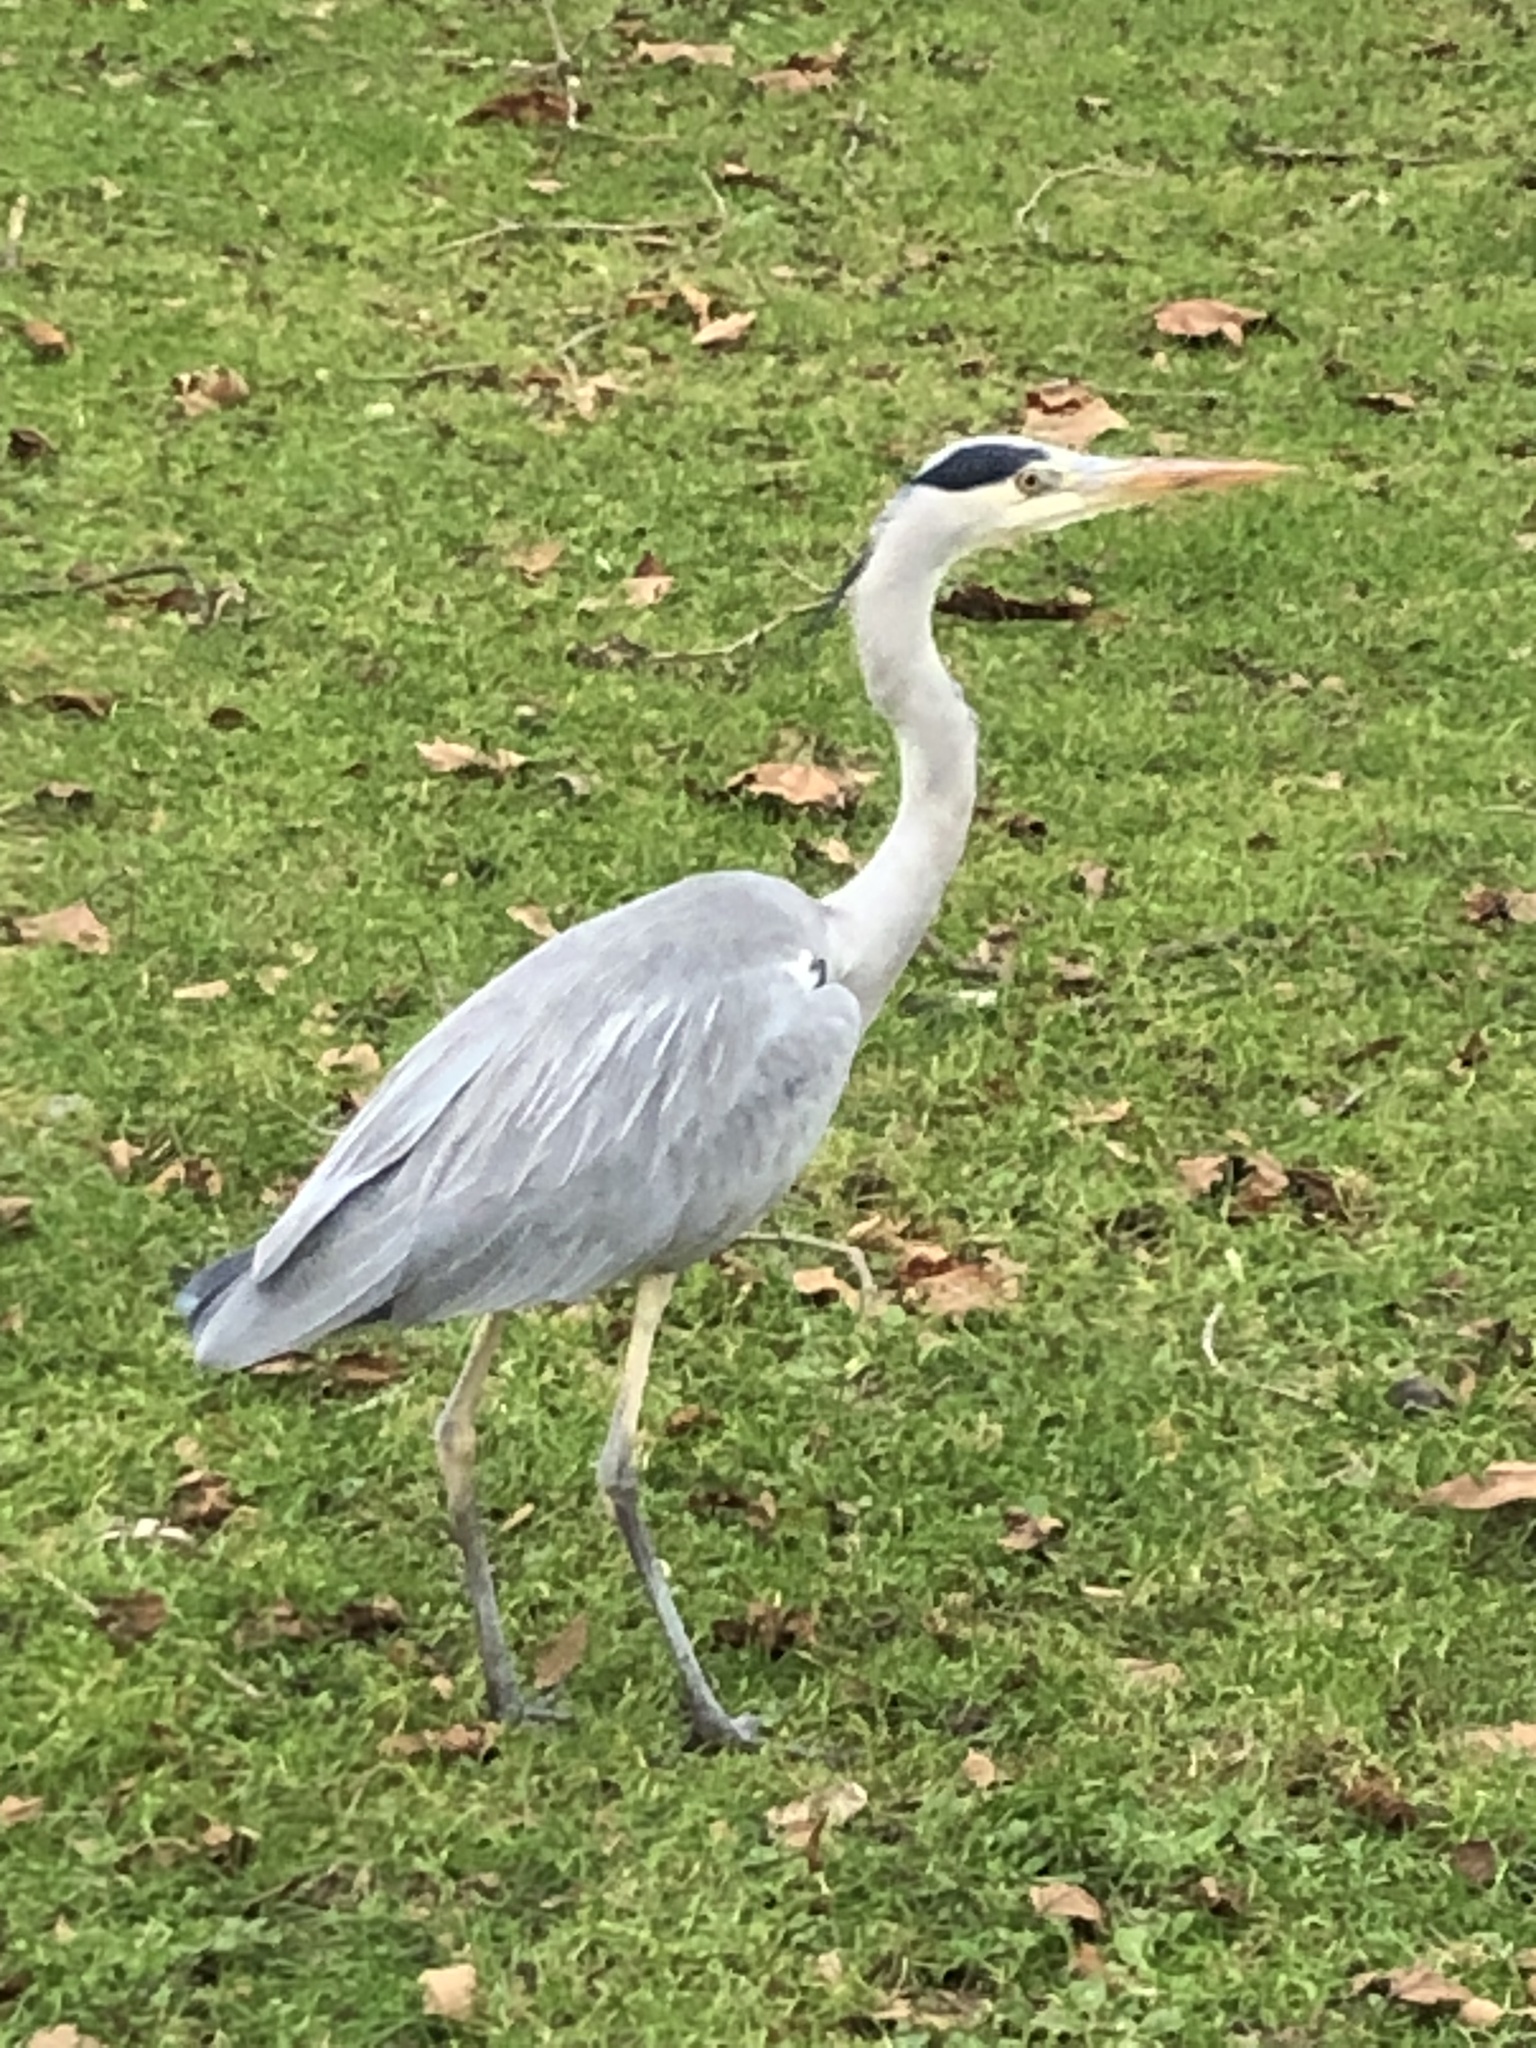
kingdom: Animalia
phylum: Chordata
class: Aves
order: Pelecaniformes
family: Ardeidae
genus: Ardea
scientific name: Ardea cinerea
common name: Grey heron
